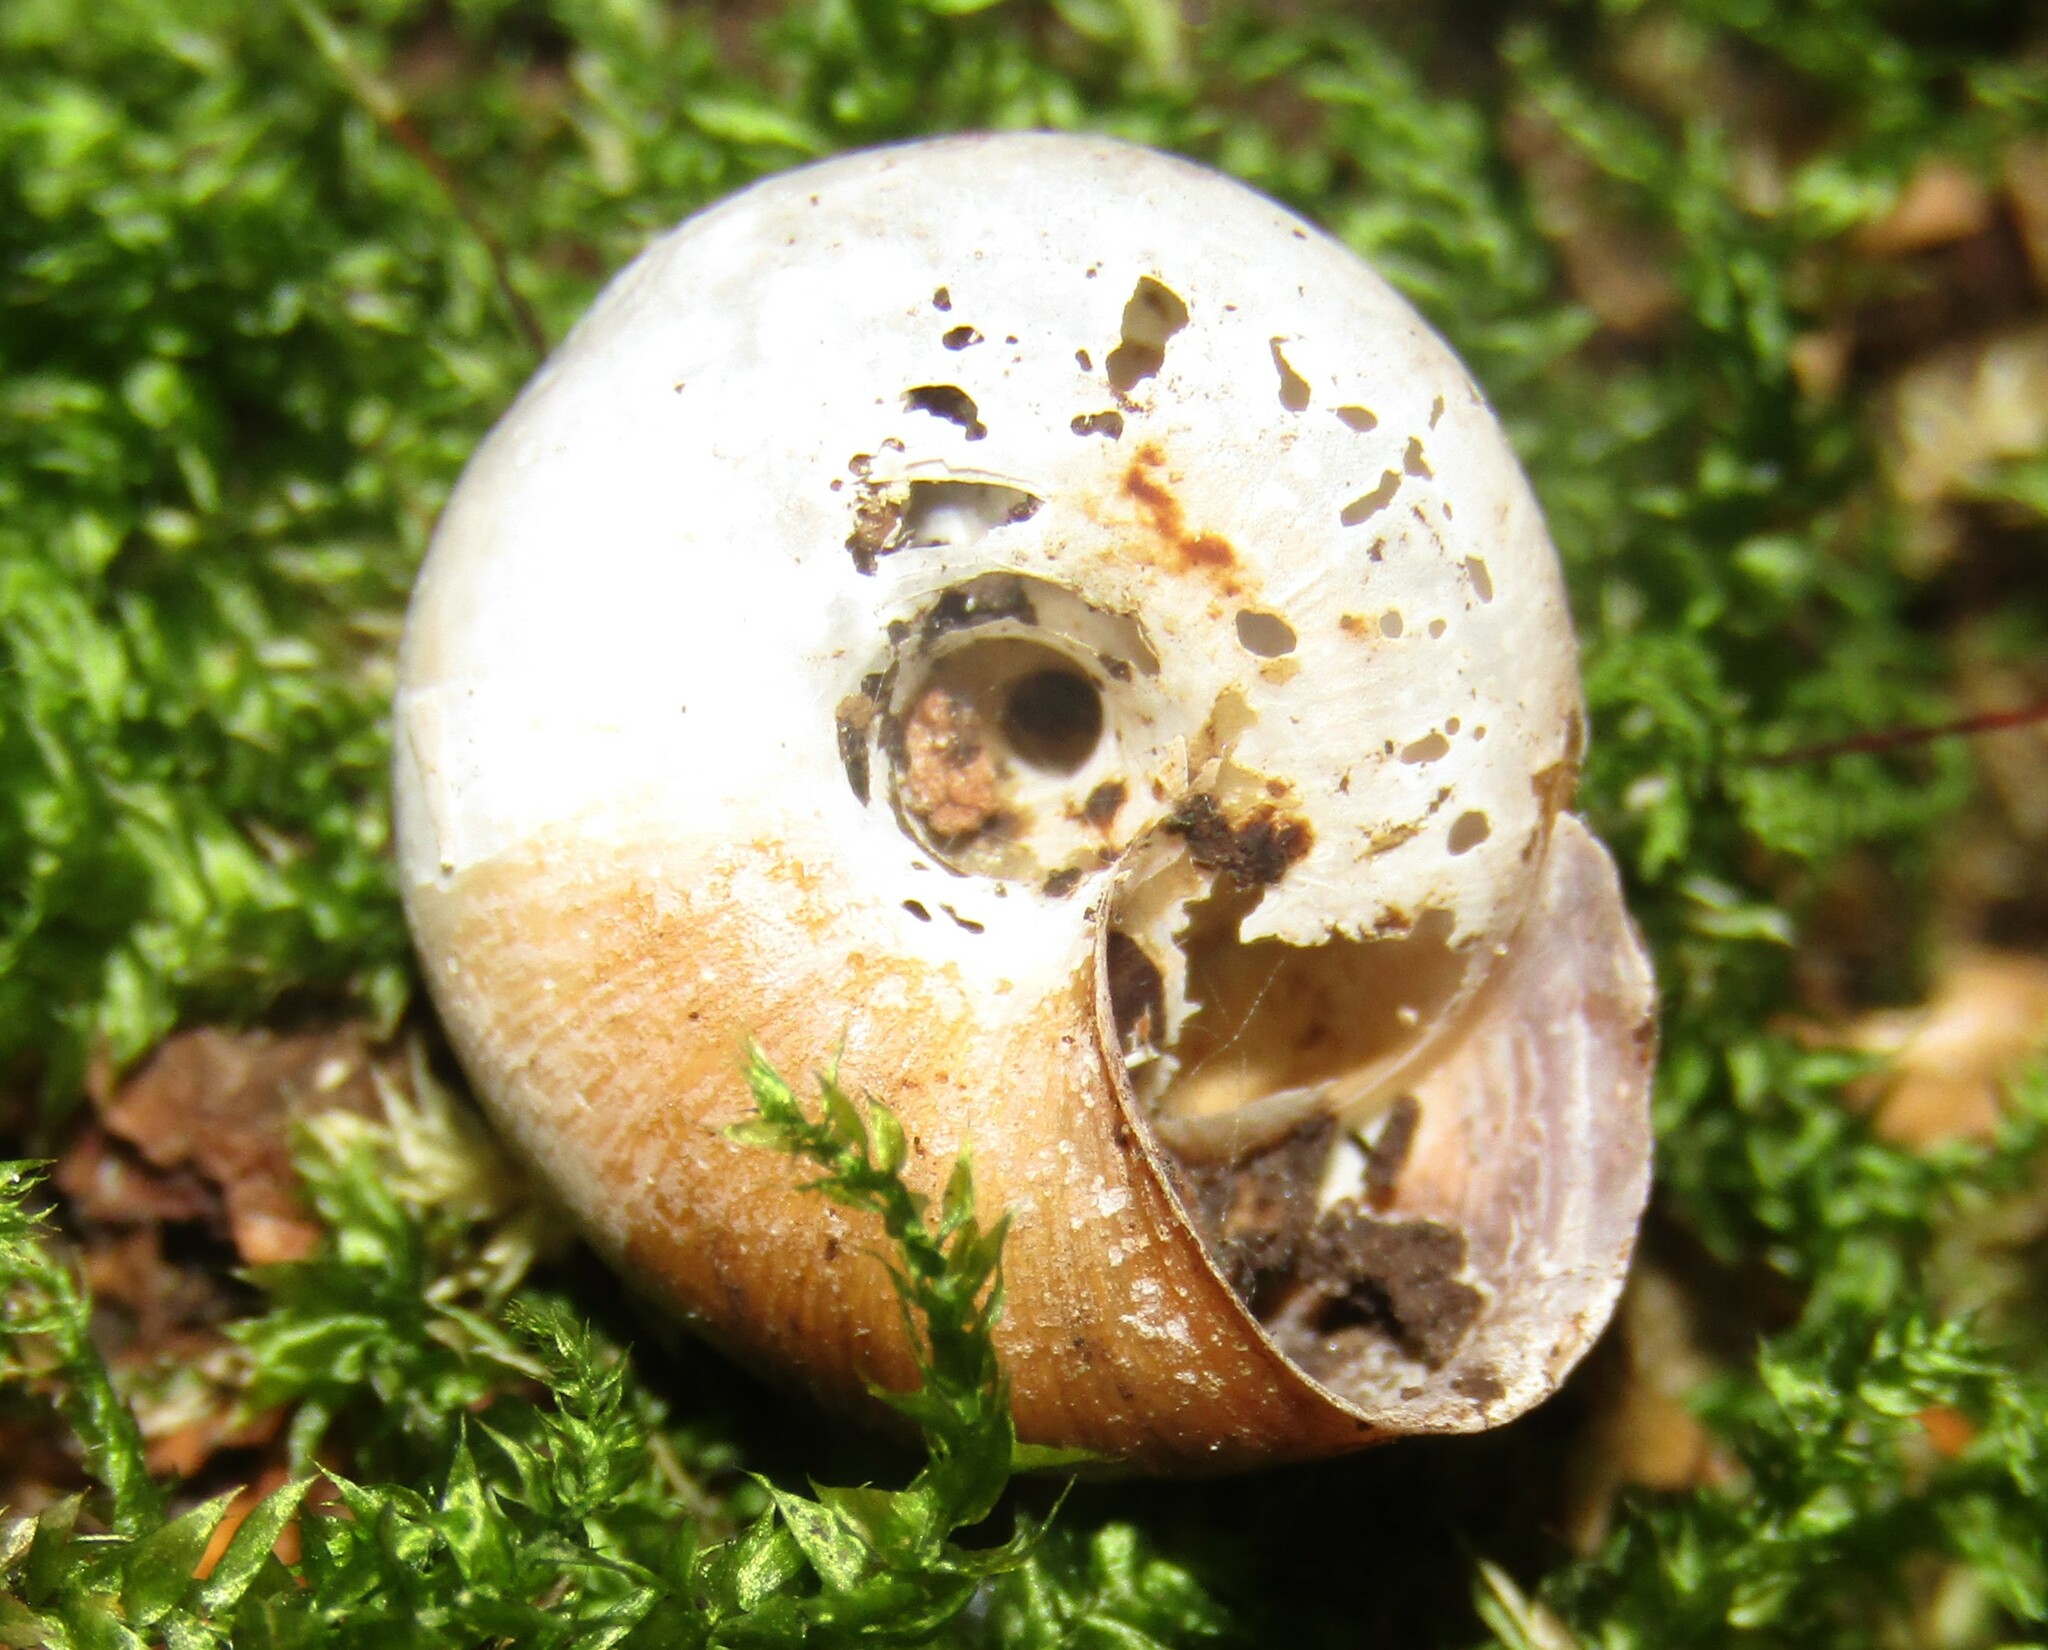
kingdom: Animalia
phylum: Mollusca
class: Gastropoda
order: Stylommatophora
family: Hygromiidae
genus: Euomphalia
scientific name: Euomphalia strigella
